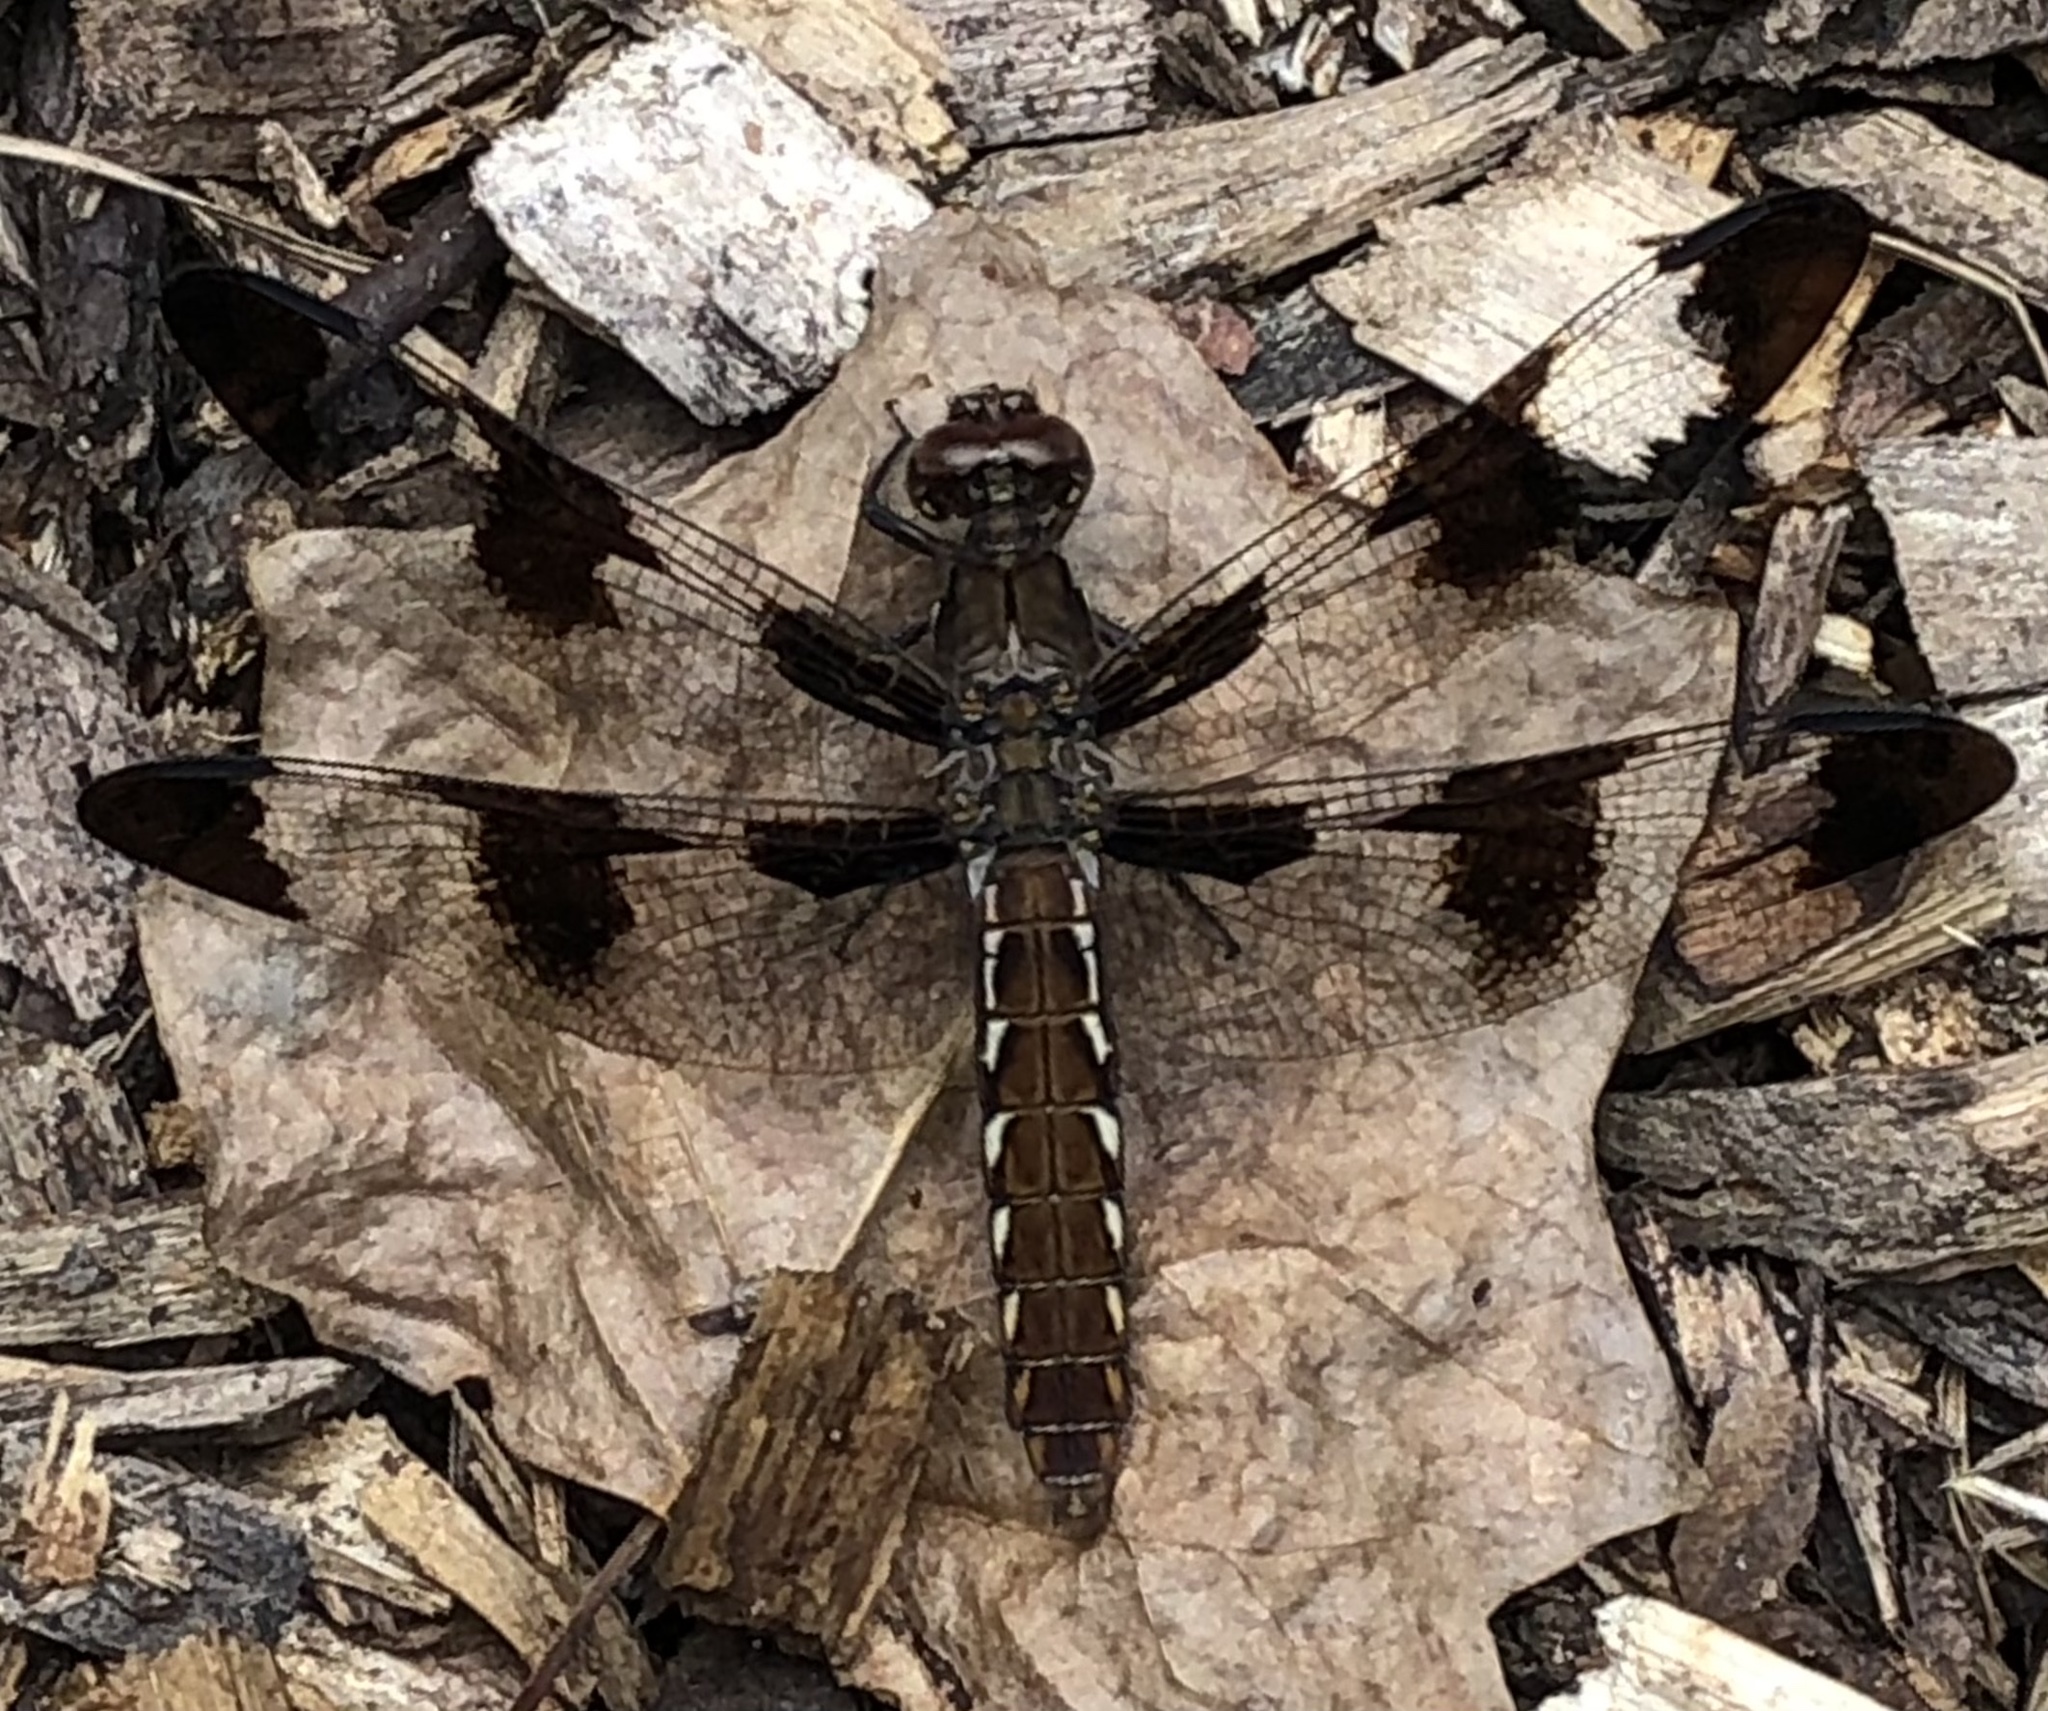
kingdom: Animalia
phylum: Arthropoda
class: Insecta
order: Odonata
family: Libellulidae
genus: Plathemis
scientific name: Plathemis lydia
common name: Common whitetail
